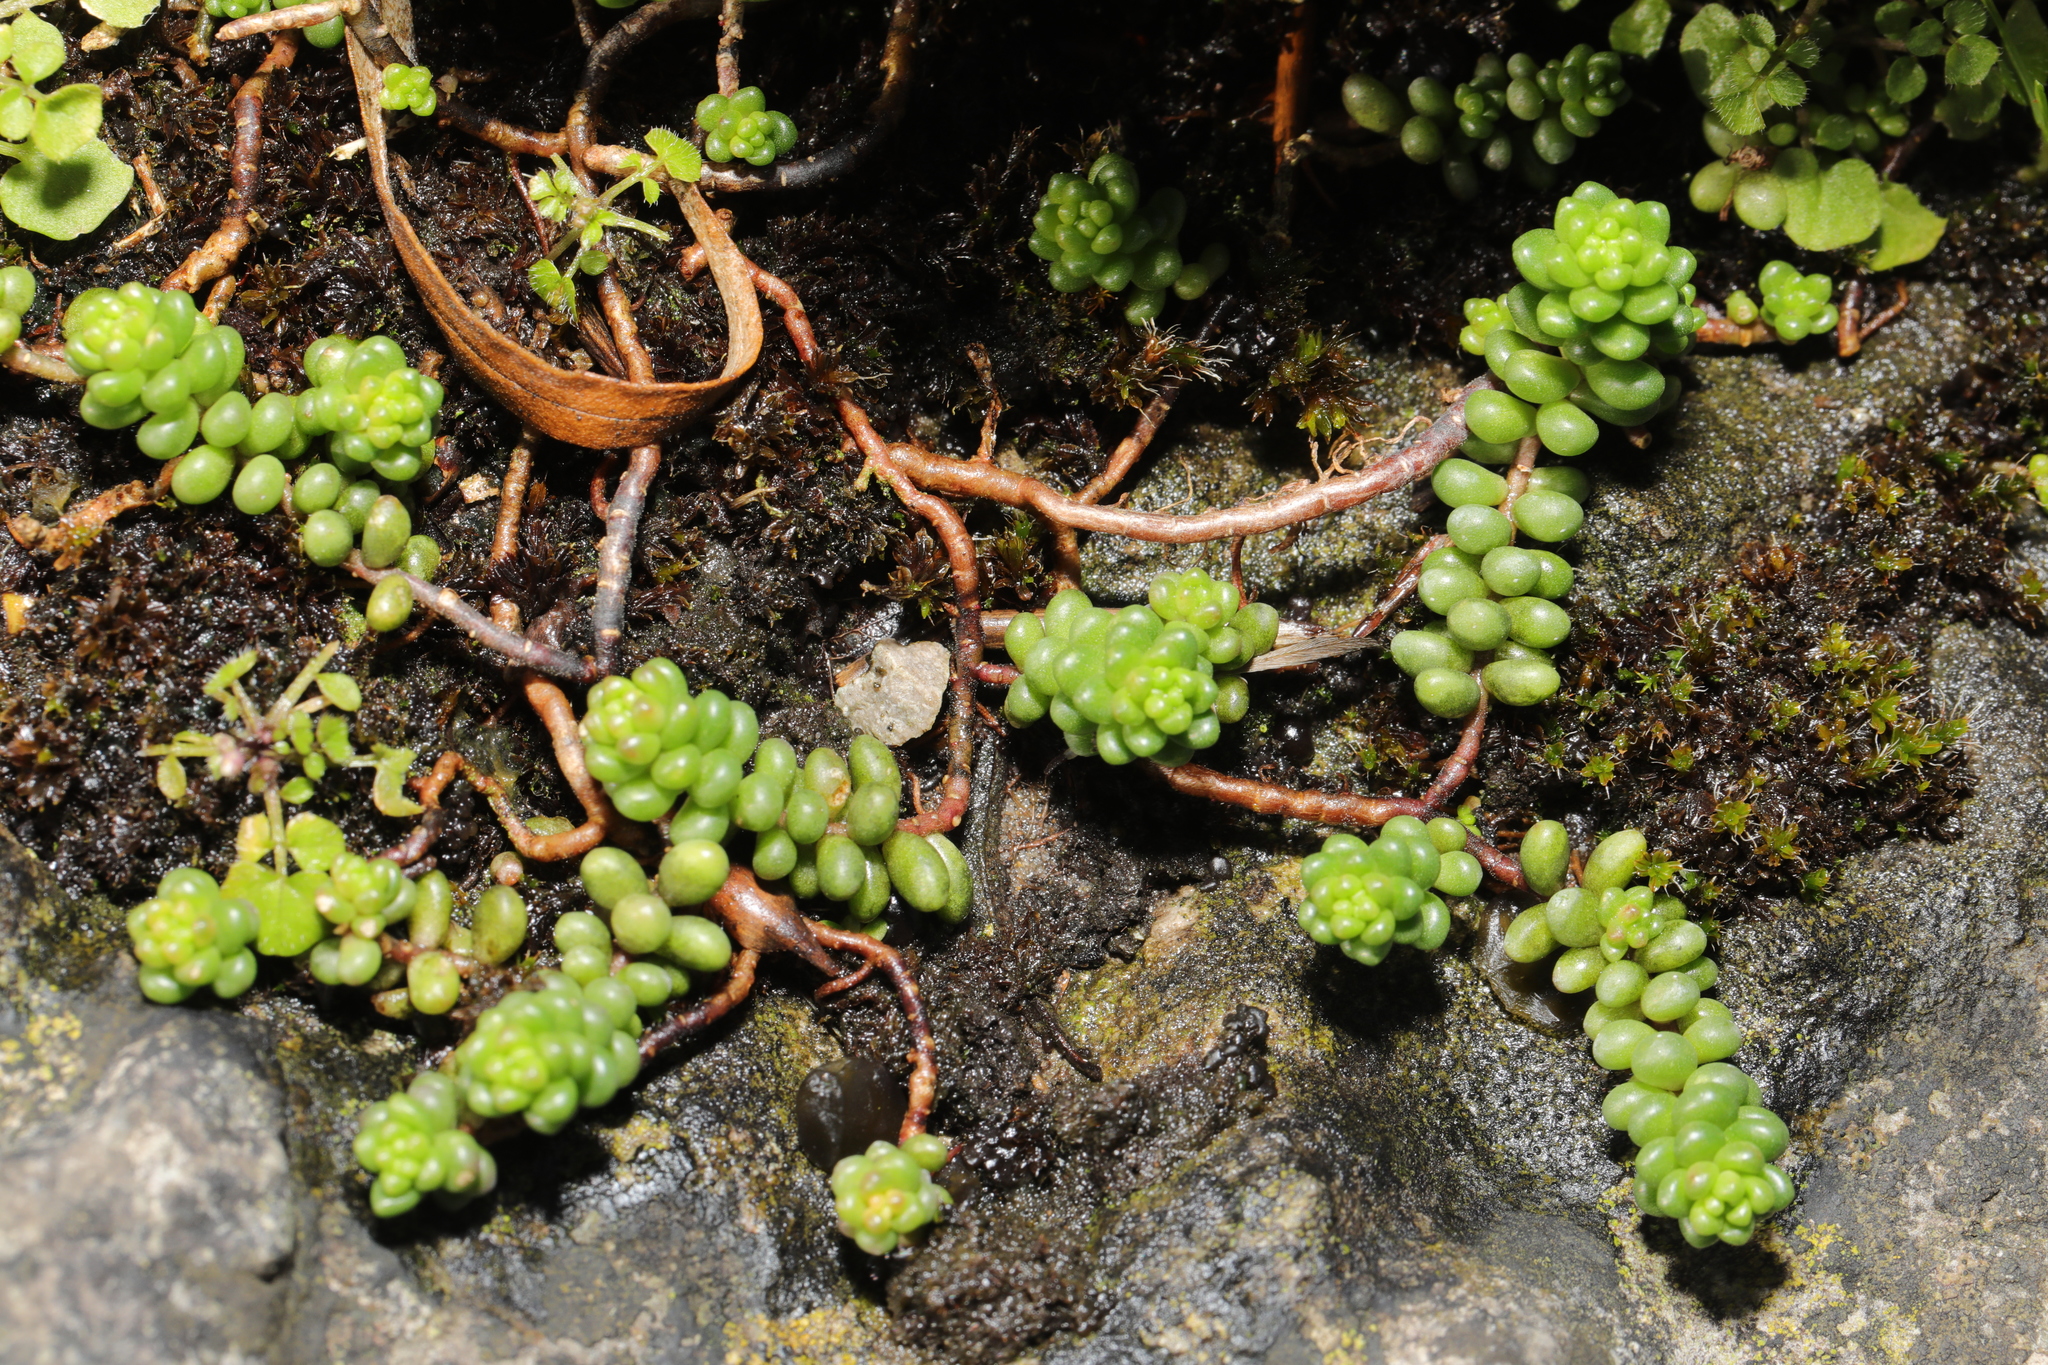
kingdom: Plantae
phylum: Tracheophyta
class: Magnoliopsida
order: Saxifragales
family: Crassulaceae
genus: Sedum
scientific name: Sedum album
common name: White stonecrop
